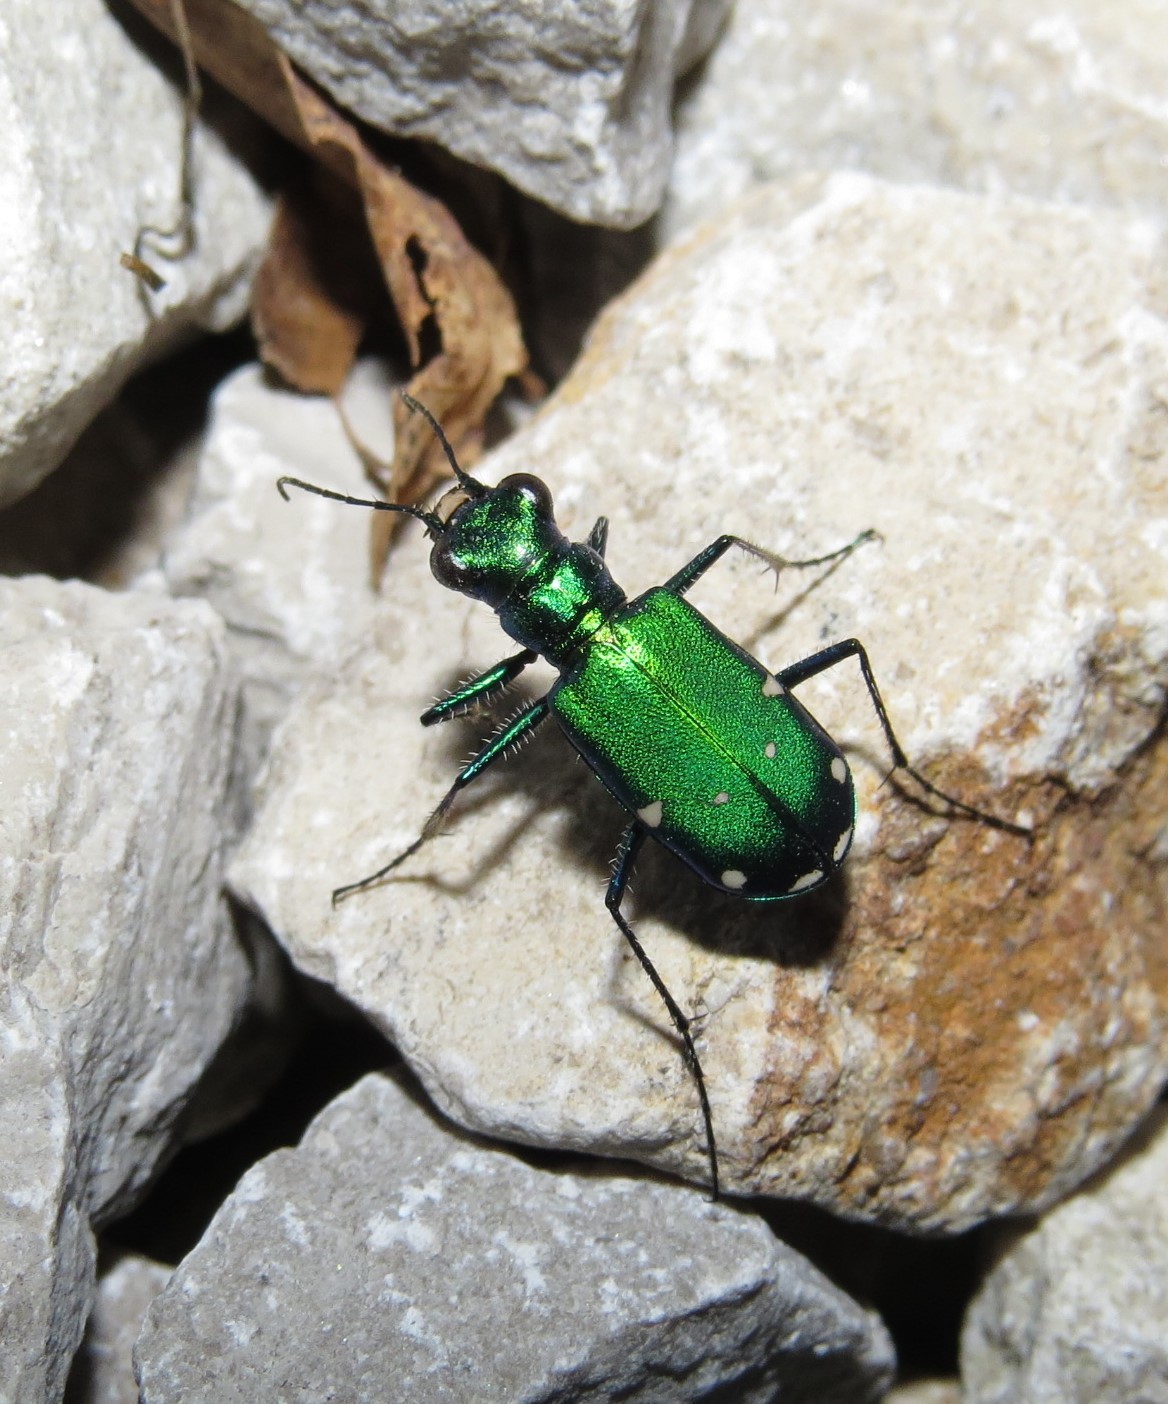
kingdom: Animalia
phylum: Arthropoda
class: Insecta
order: Coleoptera
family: Carabidae
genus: Cicindela
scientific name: Cicindela sexguttata
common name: Six-spotted tiger beetle
